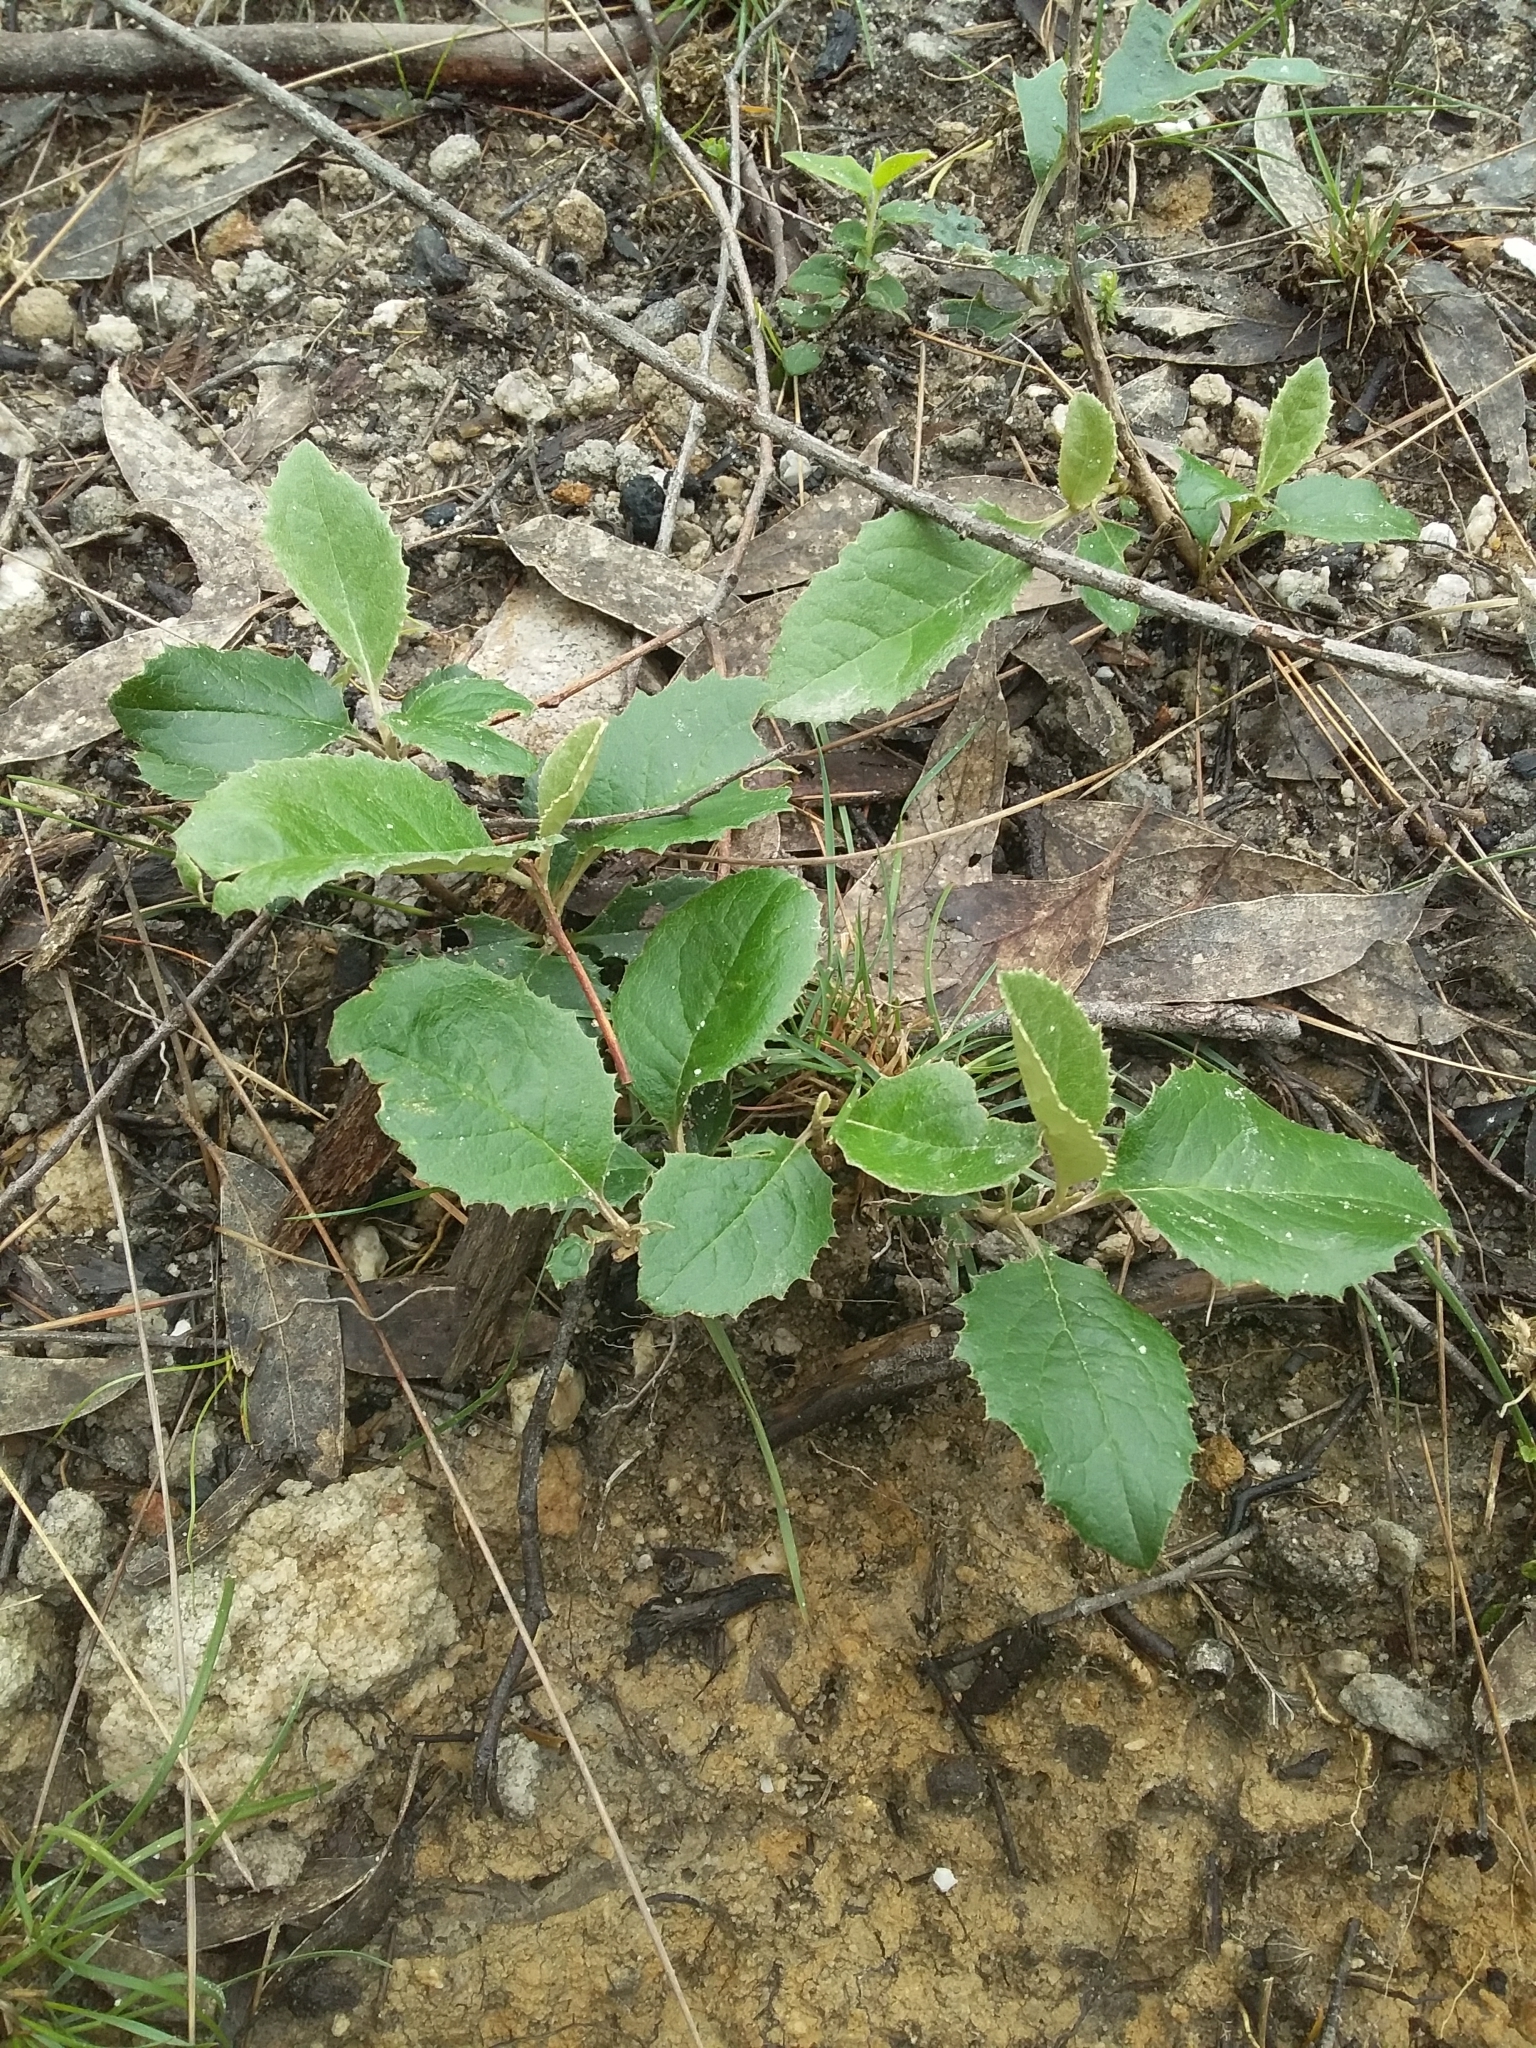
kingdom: Plantae
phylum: Tracheophyta
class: Magnoliopsida
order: Asterales
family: Asteraceae
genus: Olearia
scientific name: Olearia grandiflora
